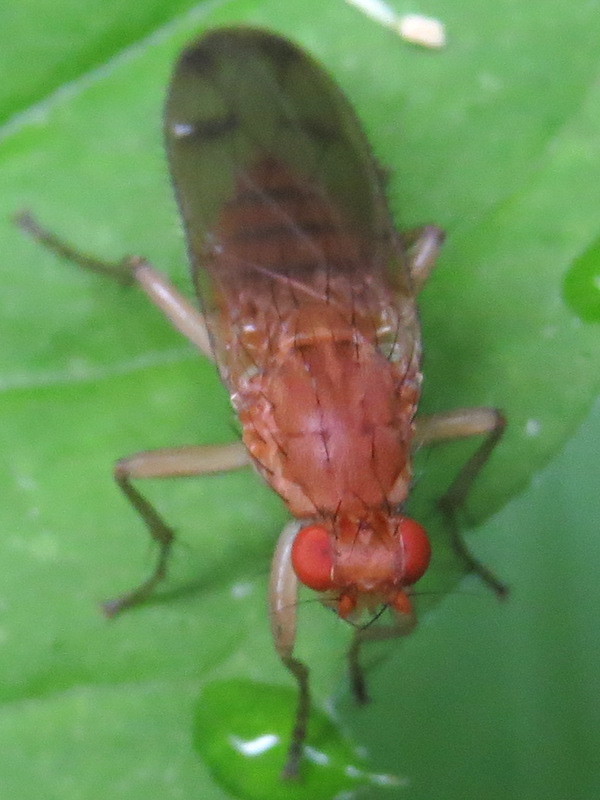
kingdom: Animalia
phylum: Arthropoda
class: Insecta
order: Diptera
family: Heleomyzidae
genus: Amoebaleria
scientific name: Amoebaleria helvola
